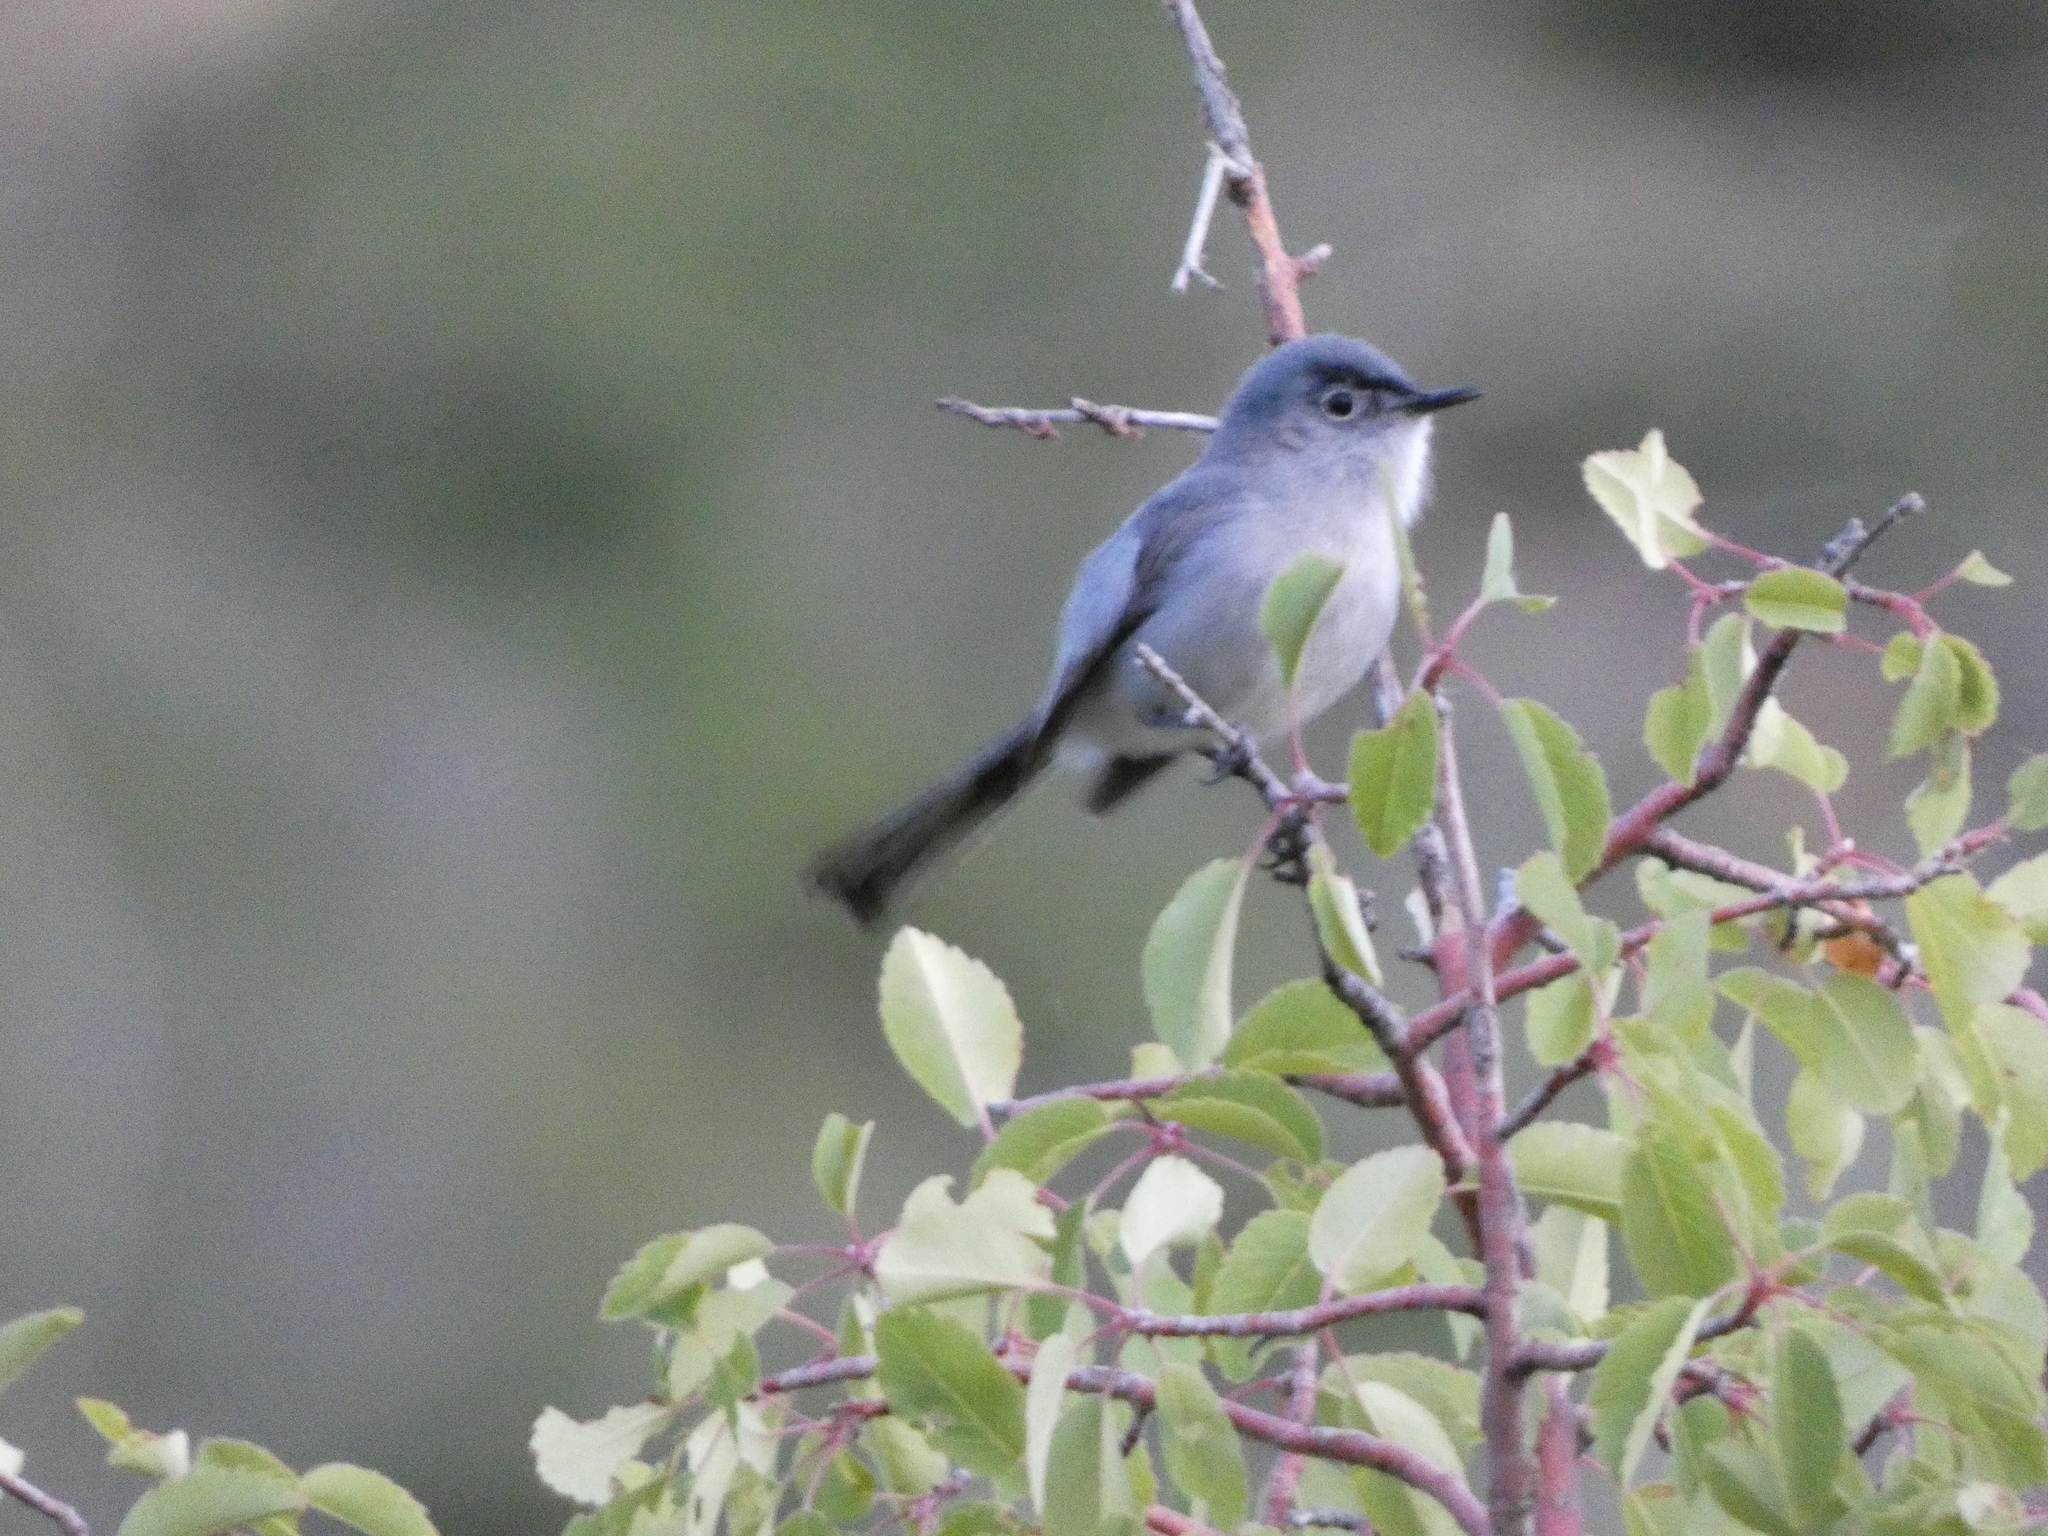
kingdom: Animalia
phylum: Chordata
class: Aves
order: Passeriformes
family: Polioptilidae
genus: Polioptila
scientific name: Polioptila caerulea
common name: Blue-gray gnatcatcher
